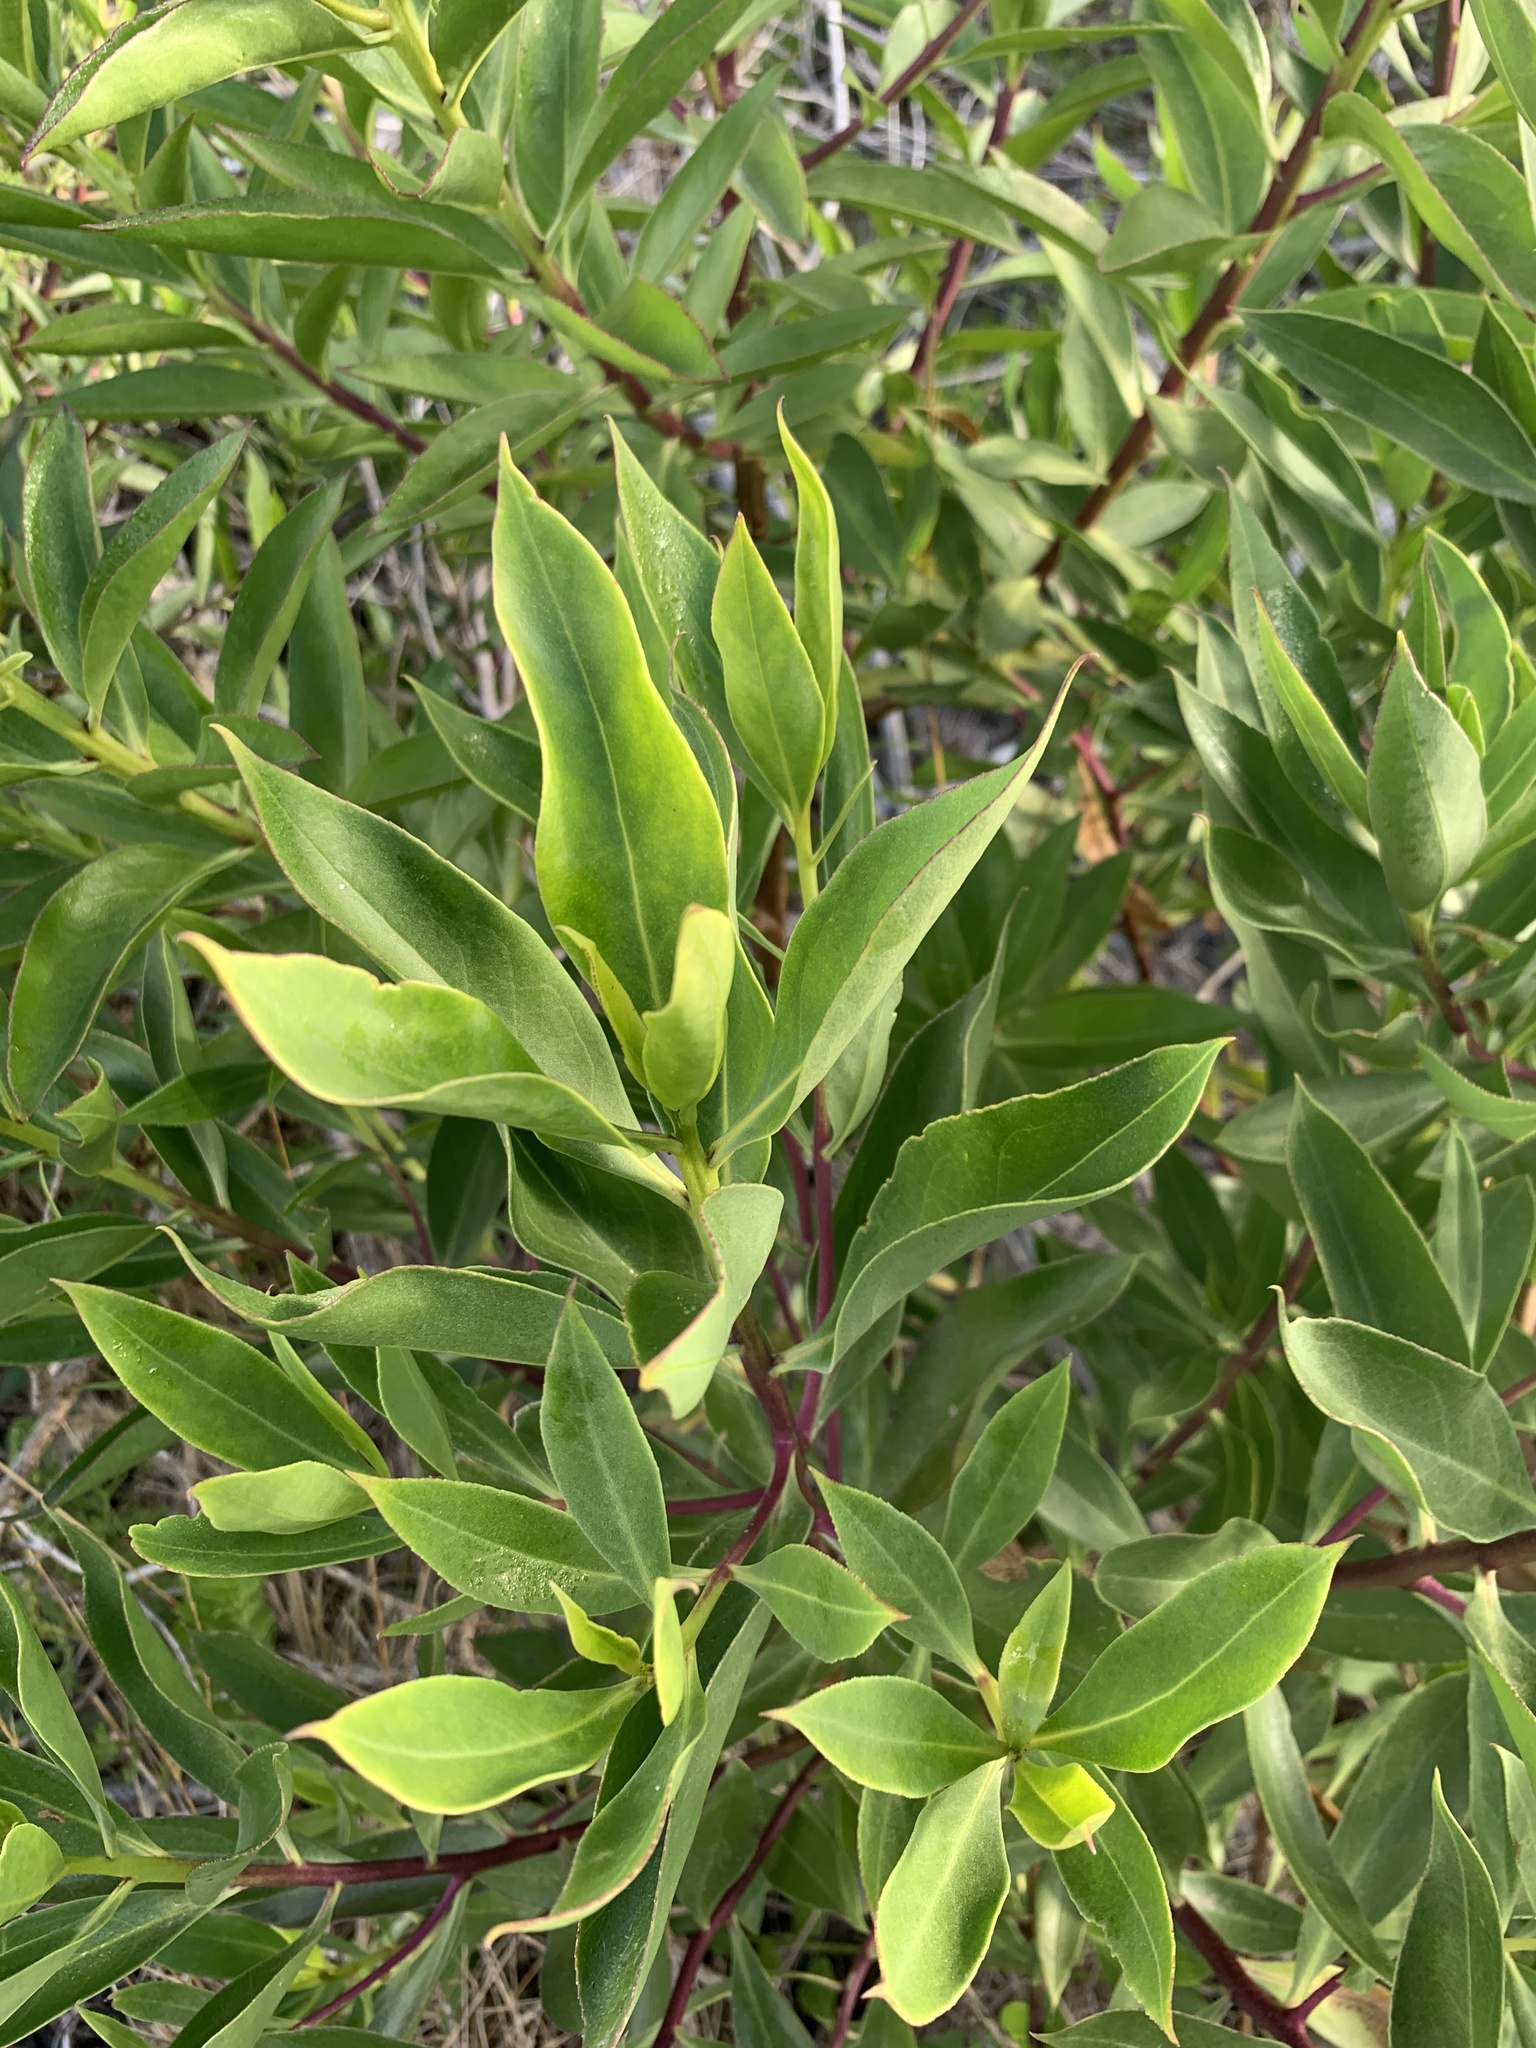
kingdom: Plantae
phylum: Tracheophyta
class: Magnoliopsida
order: Lamiales
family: Scrophulariaceae
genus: Myoporum
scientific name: Myoporum insulare
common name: Common boobialla
